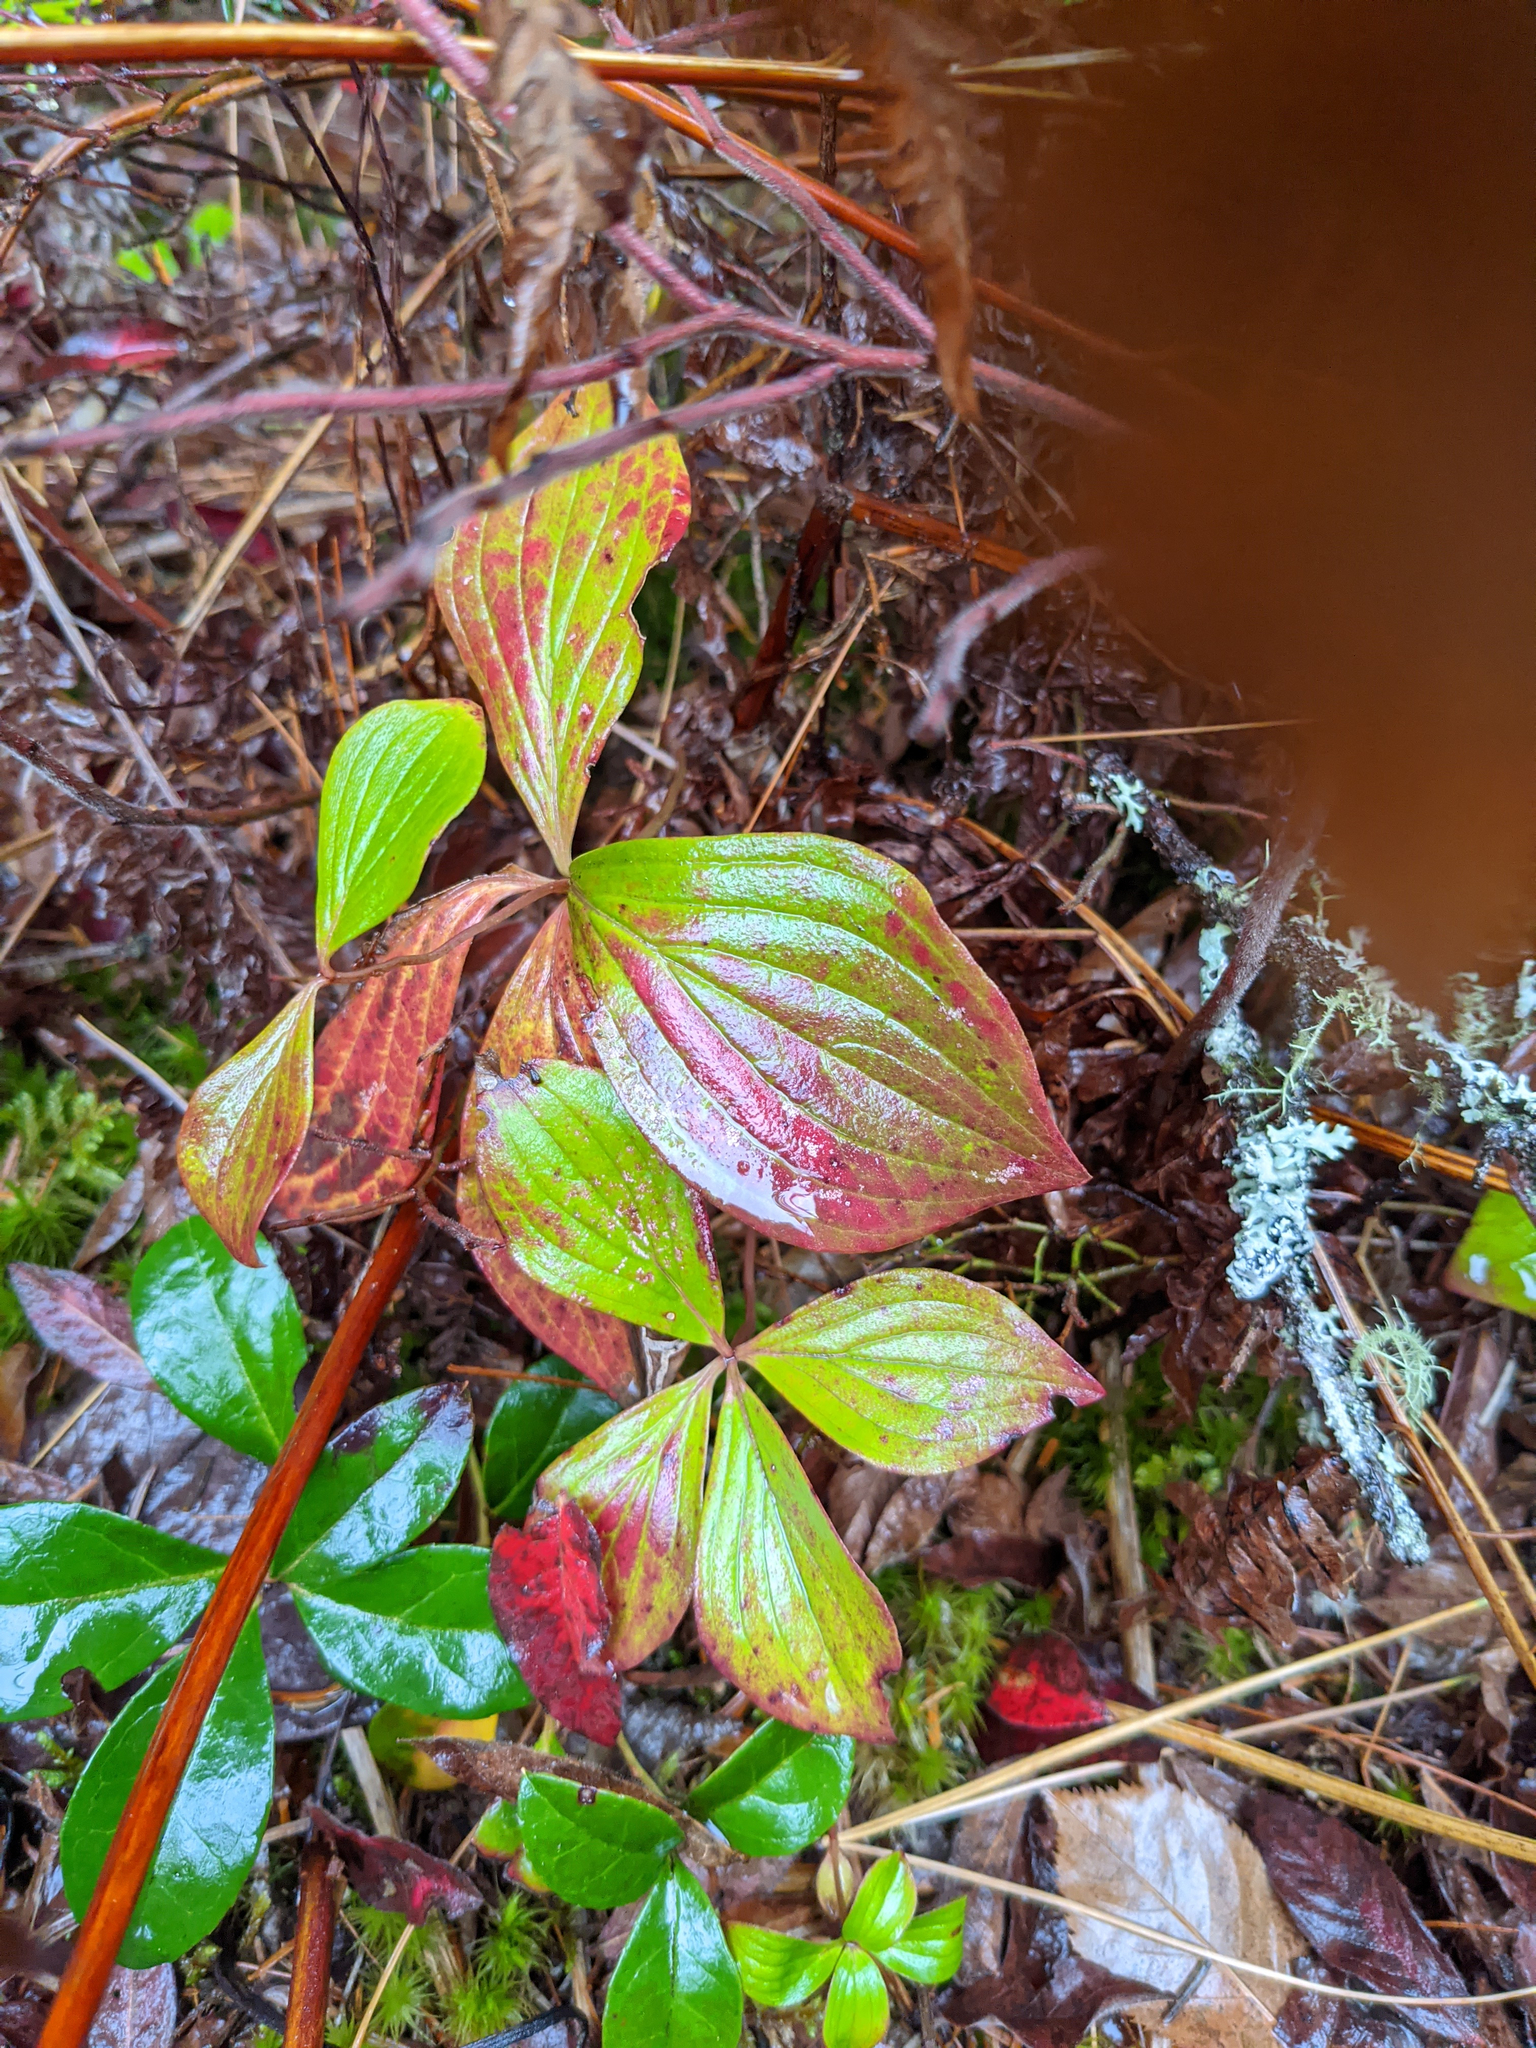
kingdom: Plantae
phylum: Tracheophyta
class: Magnoliopsida
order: Cornales
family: Cornaceae
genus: Cornus
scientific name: Cornus canadensis
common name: Creeping dogwood
